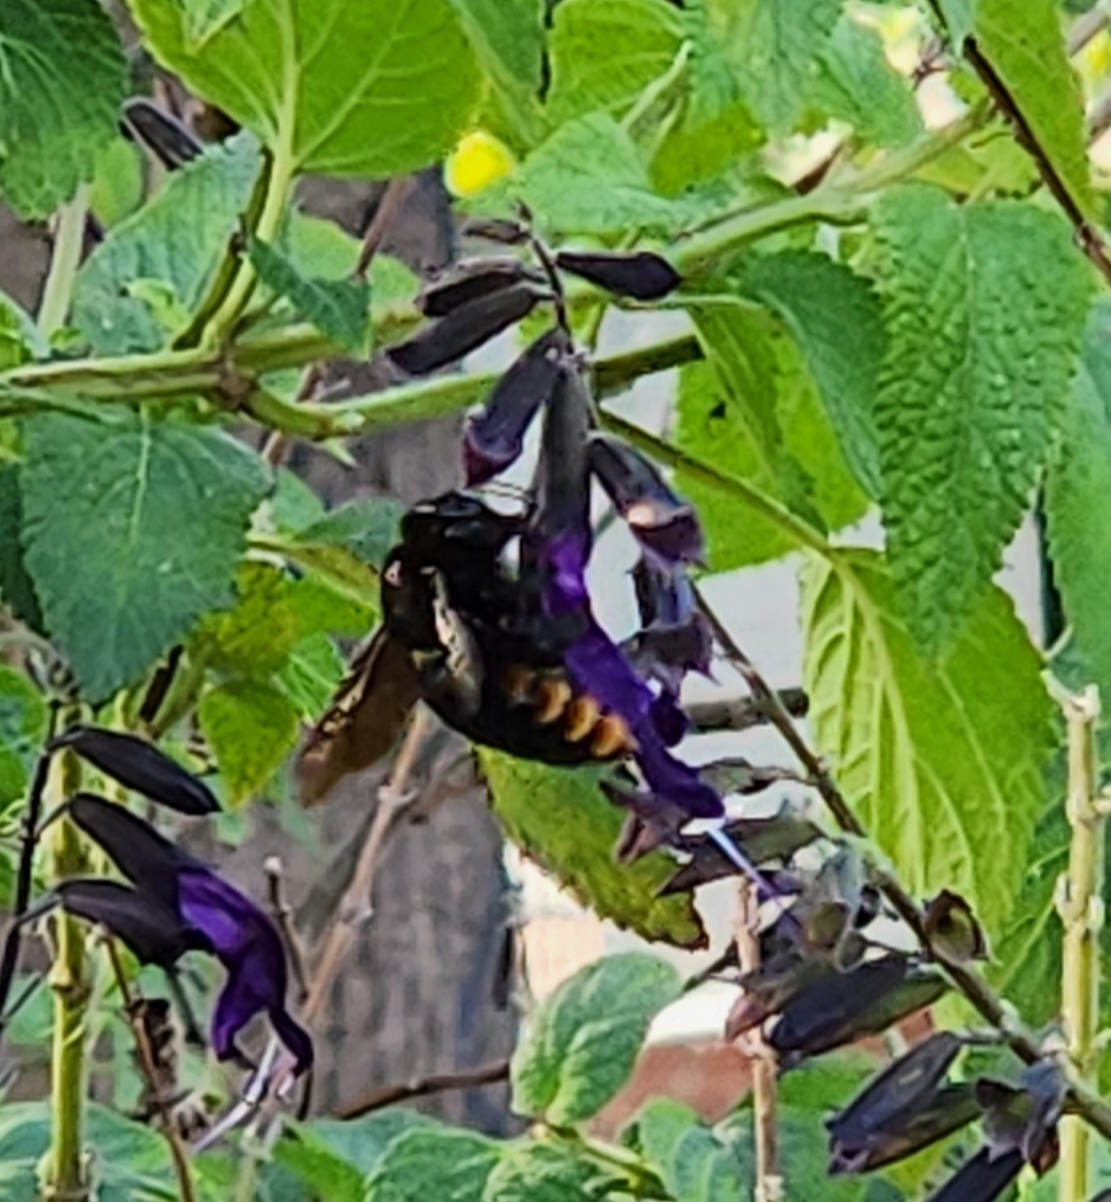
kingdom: Animalia
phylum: Arthropoda
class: Insecta
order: Hymenoptera
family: Apidae
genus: Xylocopa
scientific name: Xylocopa augusti
